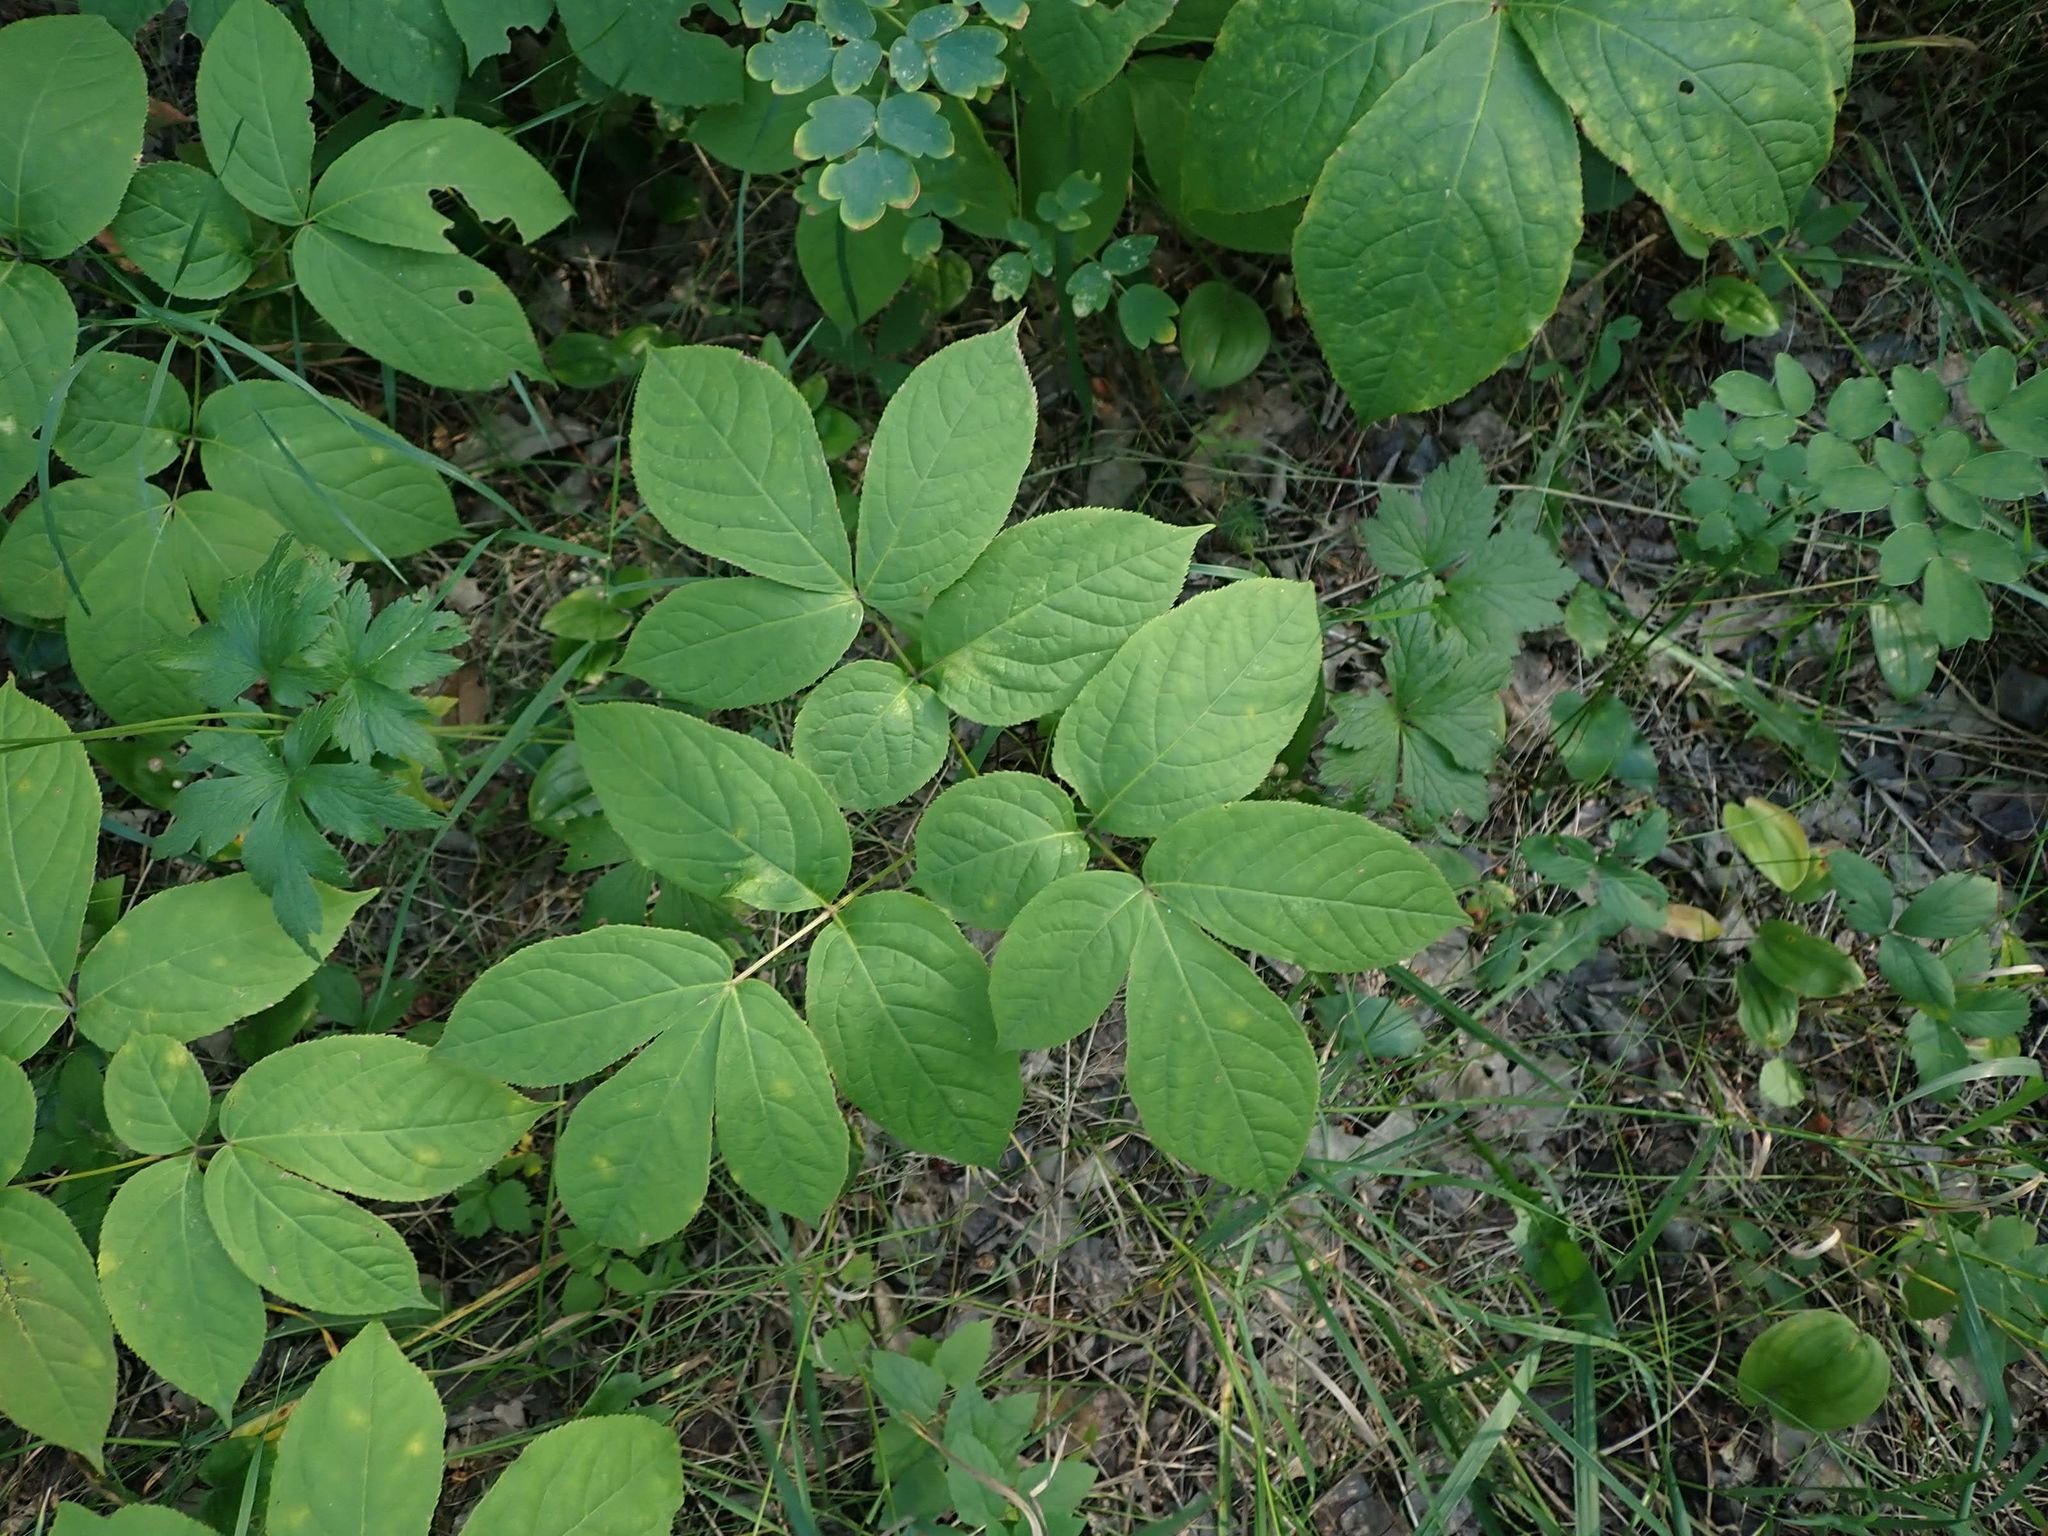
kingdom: Plantae
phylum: Tracheophyta
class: Magnoliopsida
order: Apiales
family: Araliaceae
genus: Aralia
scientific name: Aralia nudicaulis
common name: Wild sarsaparilla
